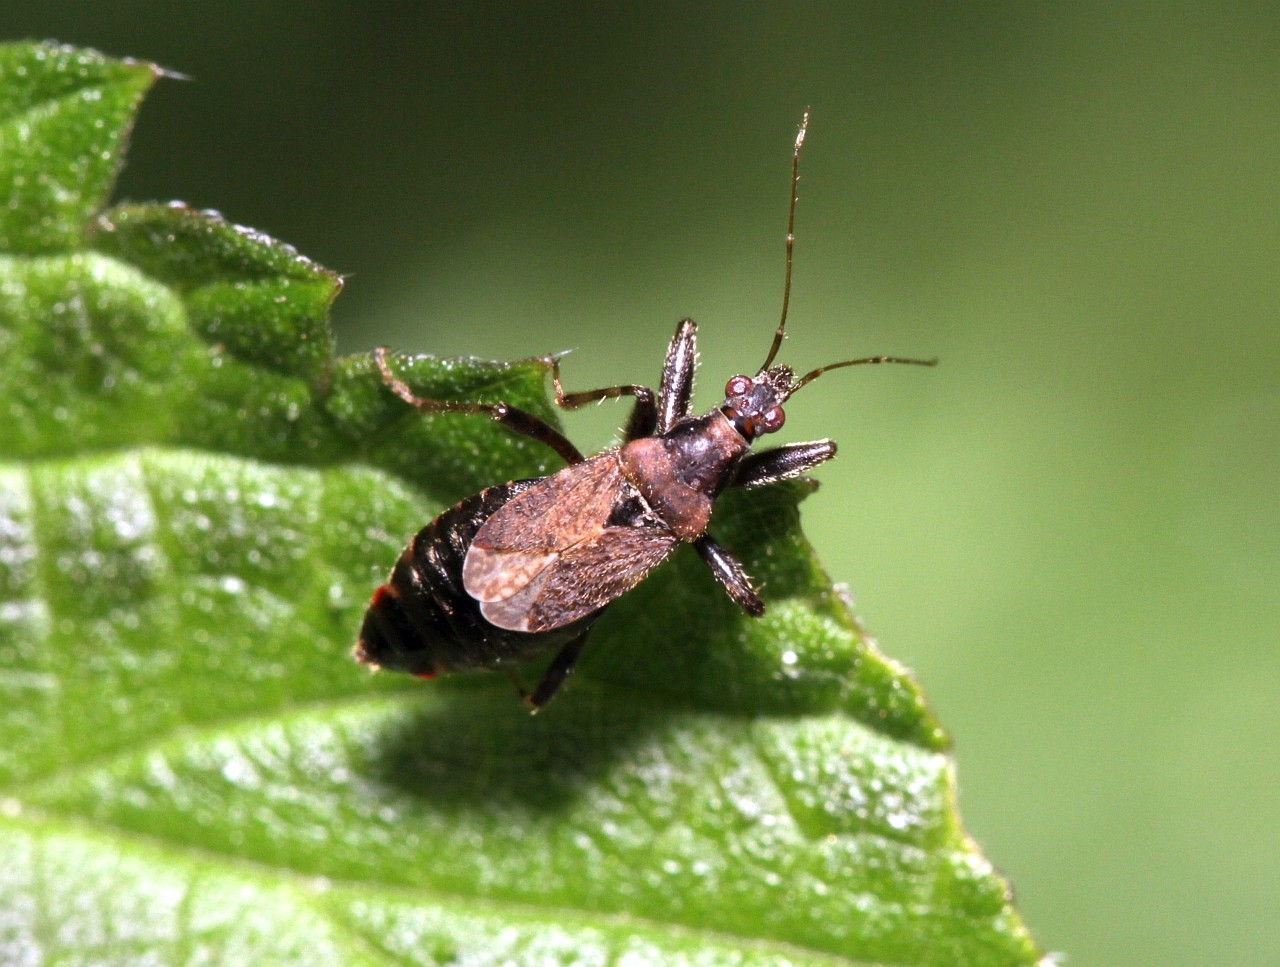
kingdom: Animalia
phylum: Arthropoda
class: Insecta
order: Hemiptera
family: Nabidae
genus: Himacerus
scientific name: Himacerus mirmicoides
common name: Ant damsel bug
